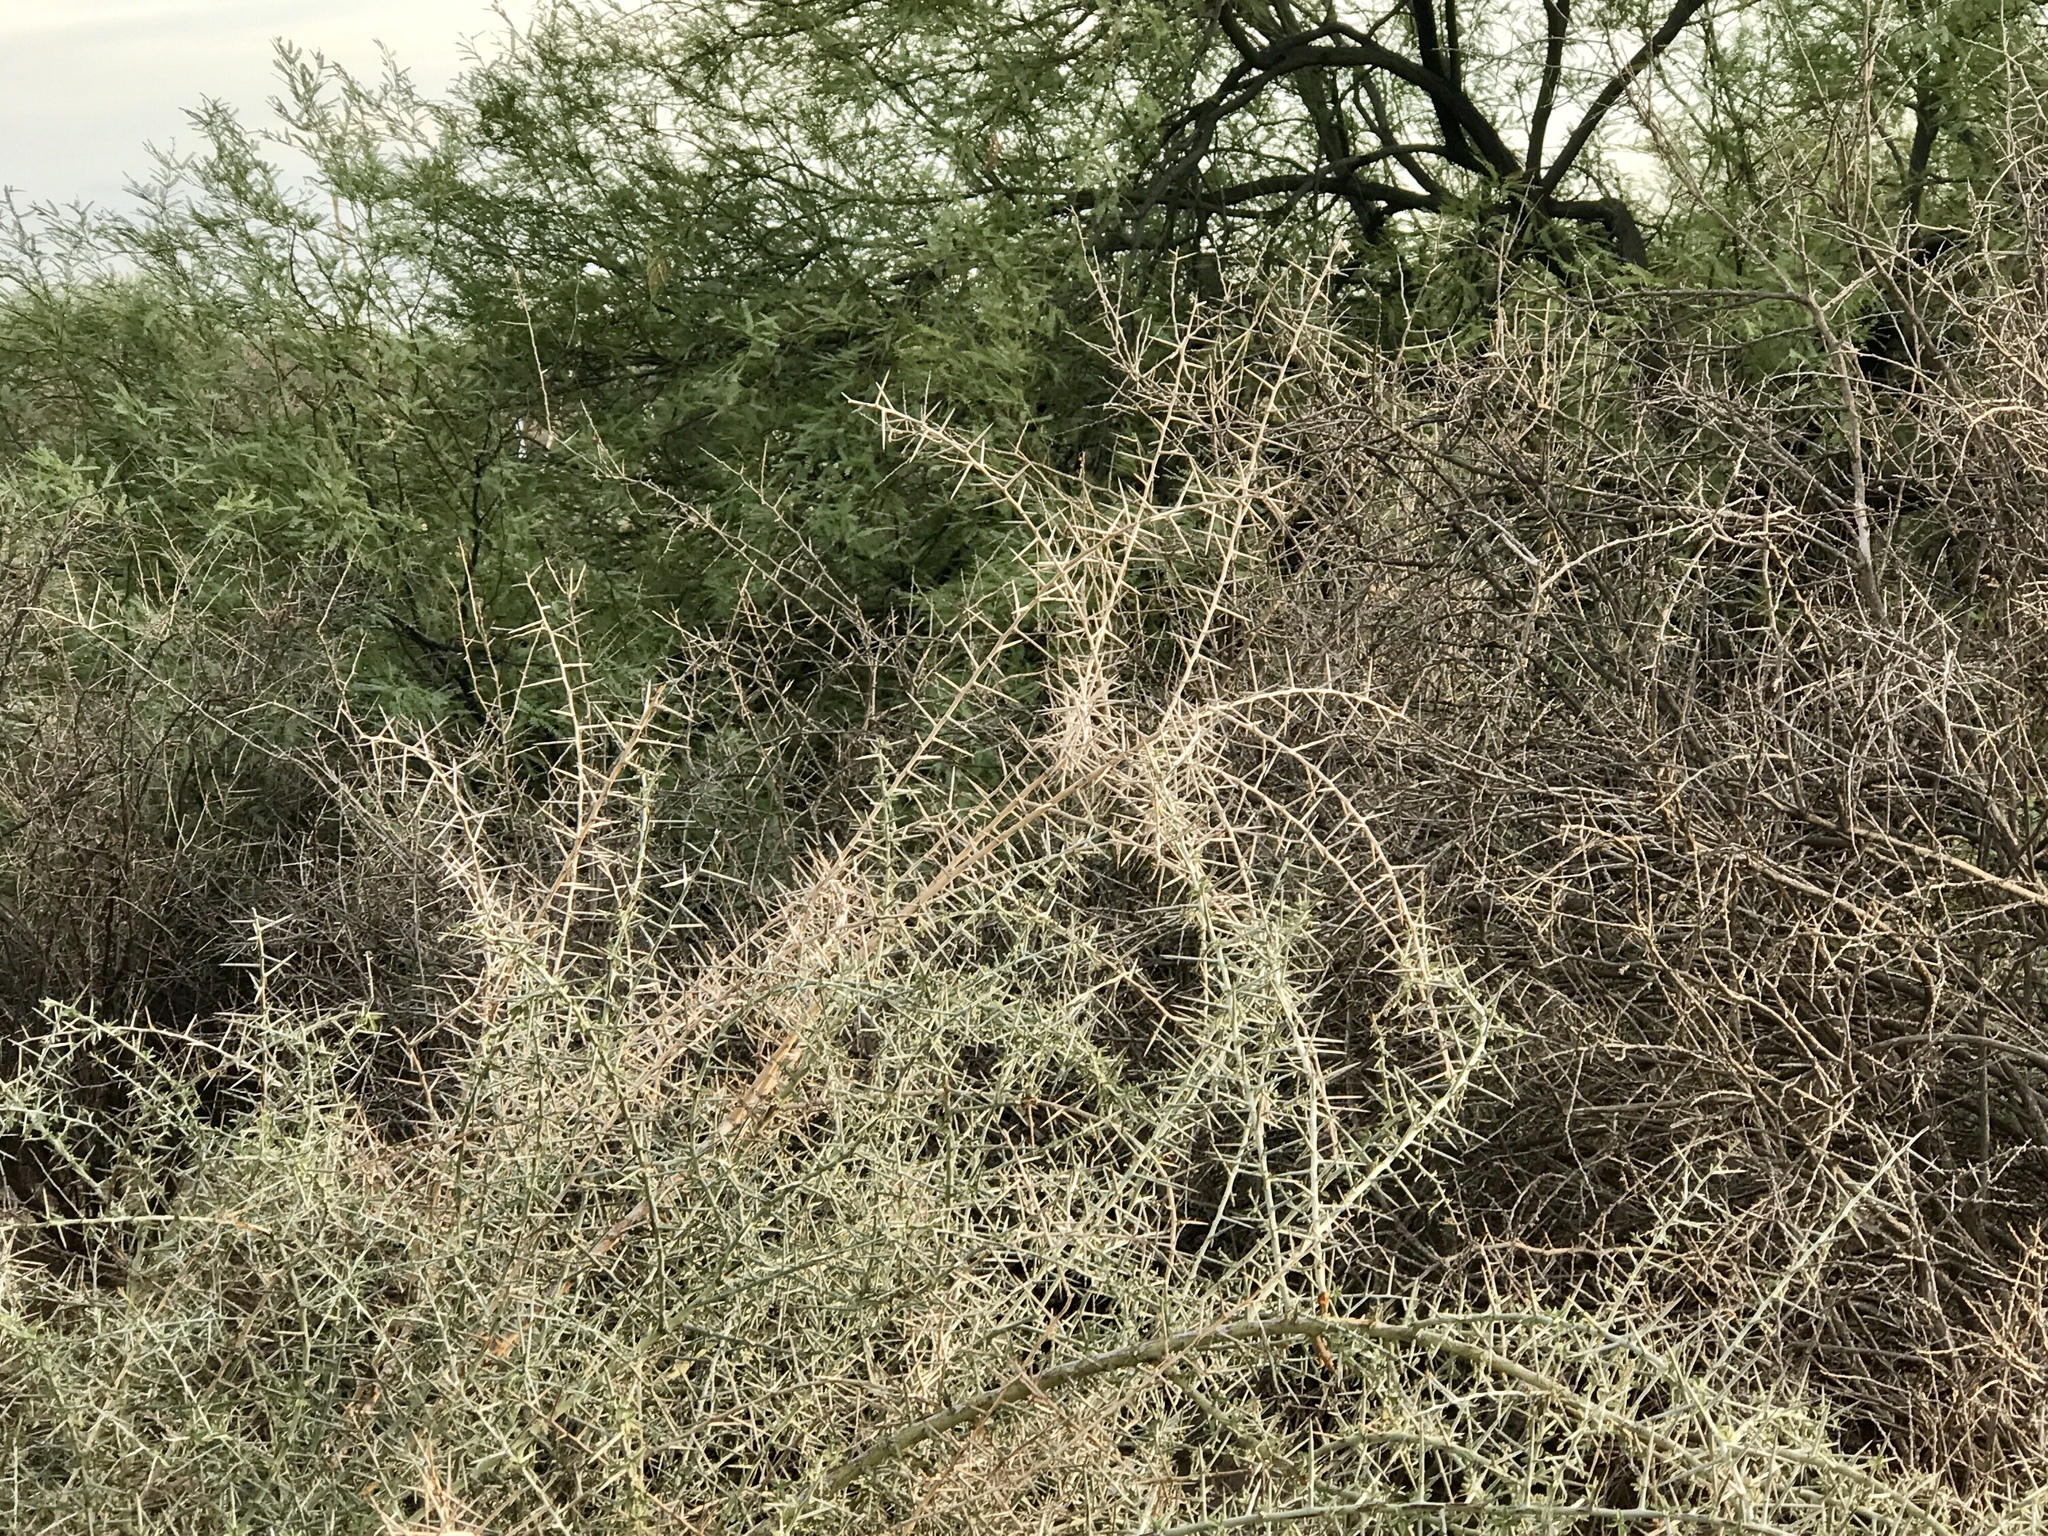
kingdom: Plantae
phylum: Tracheophyta
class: Magnoliopsida
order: Rosales
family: Rhamnaceae
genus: Sarcomphalus
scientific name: Sarcomphalus obtusifolius
